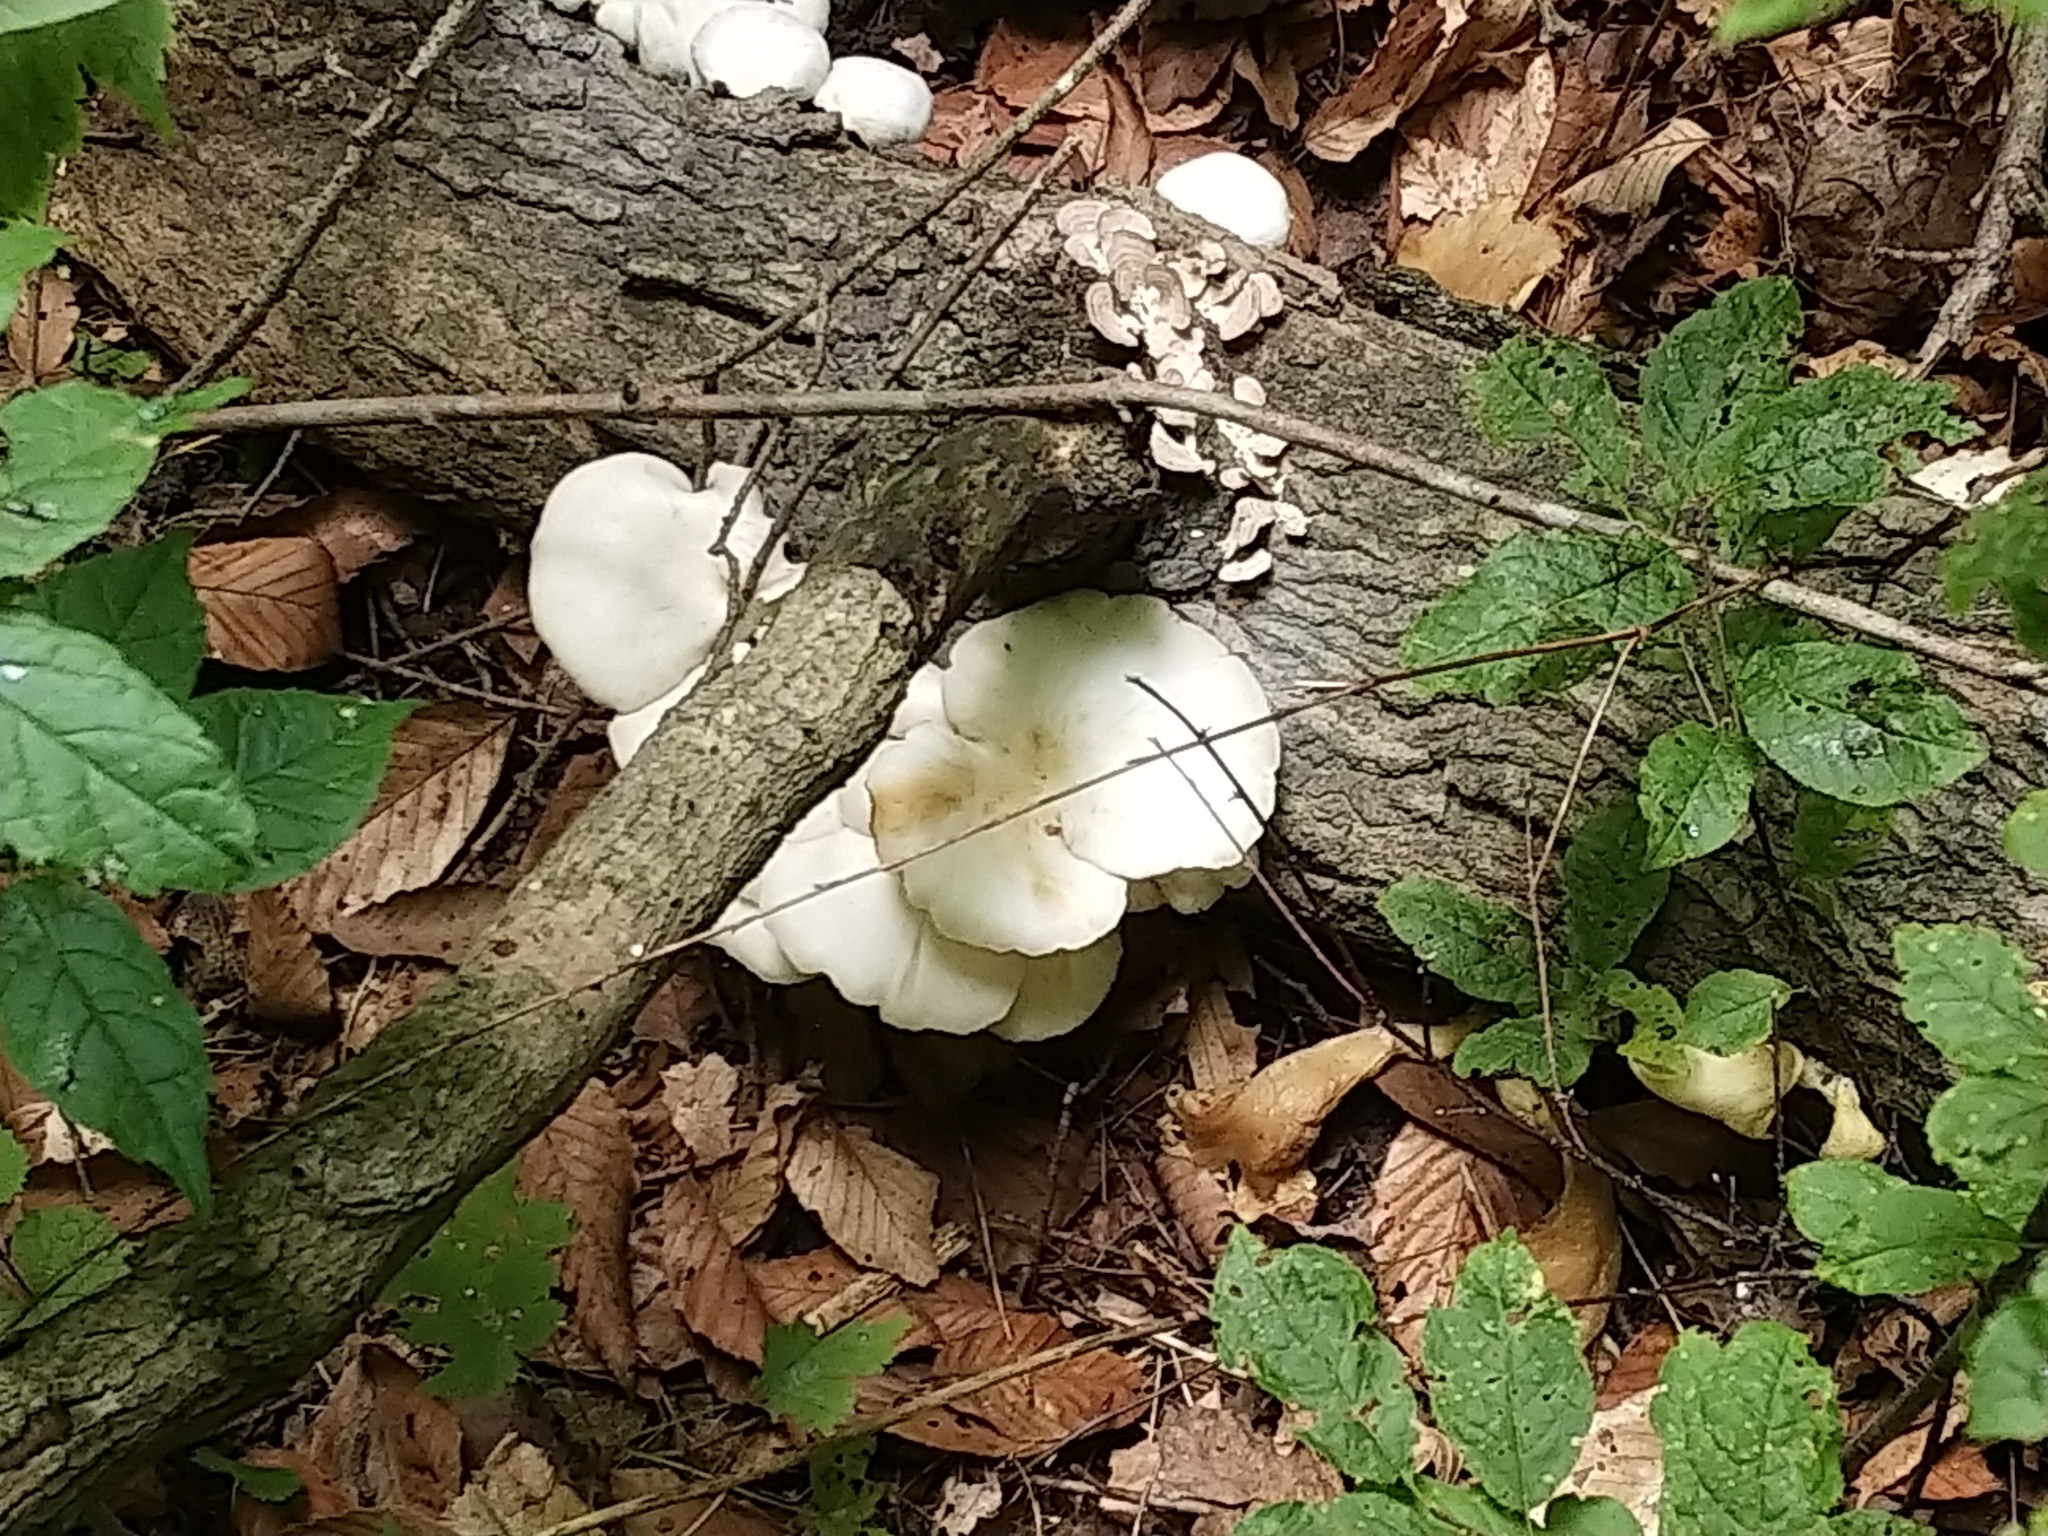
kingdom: Fungi
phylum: Basidiomycota
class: Agaricomycetes
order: Agaricales
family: Pleurotaceae
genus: Pleurotus
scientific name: Pleurotus pulmonarius
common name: Pale oyster
